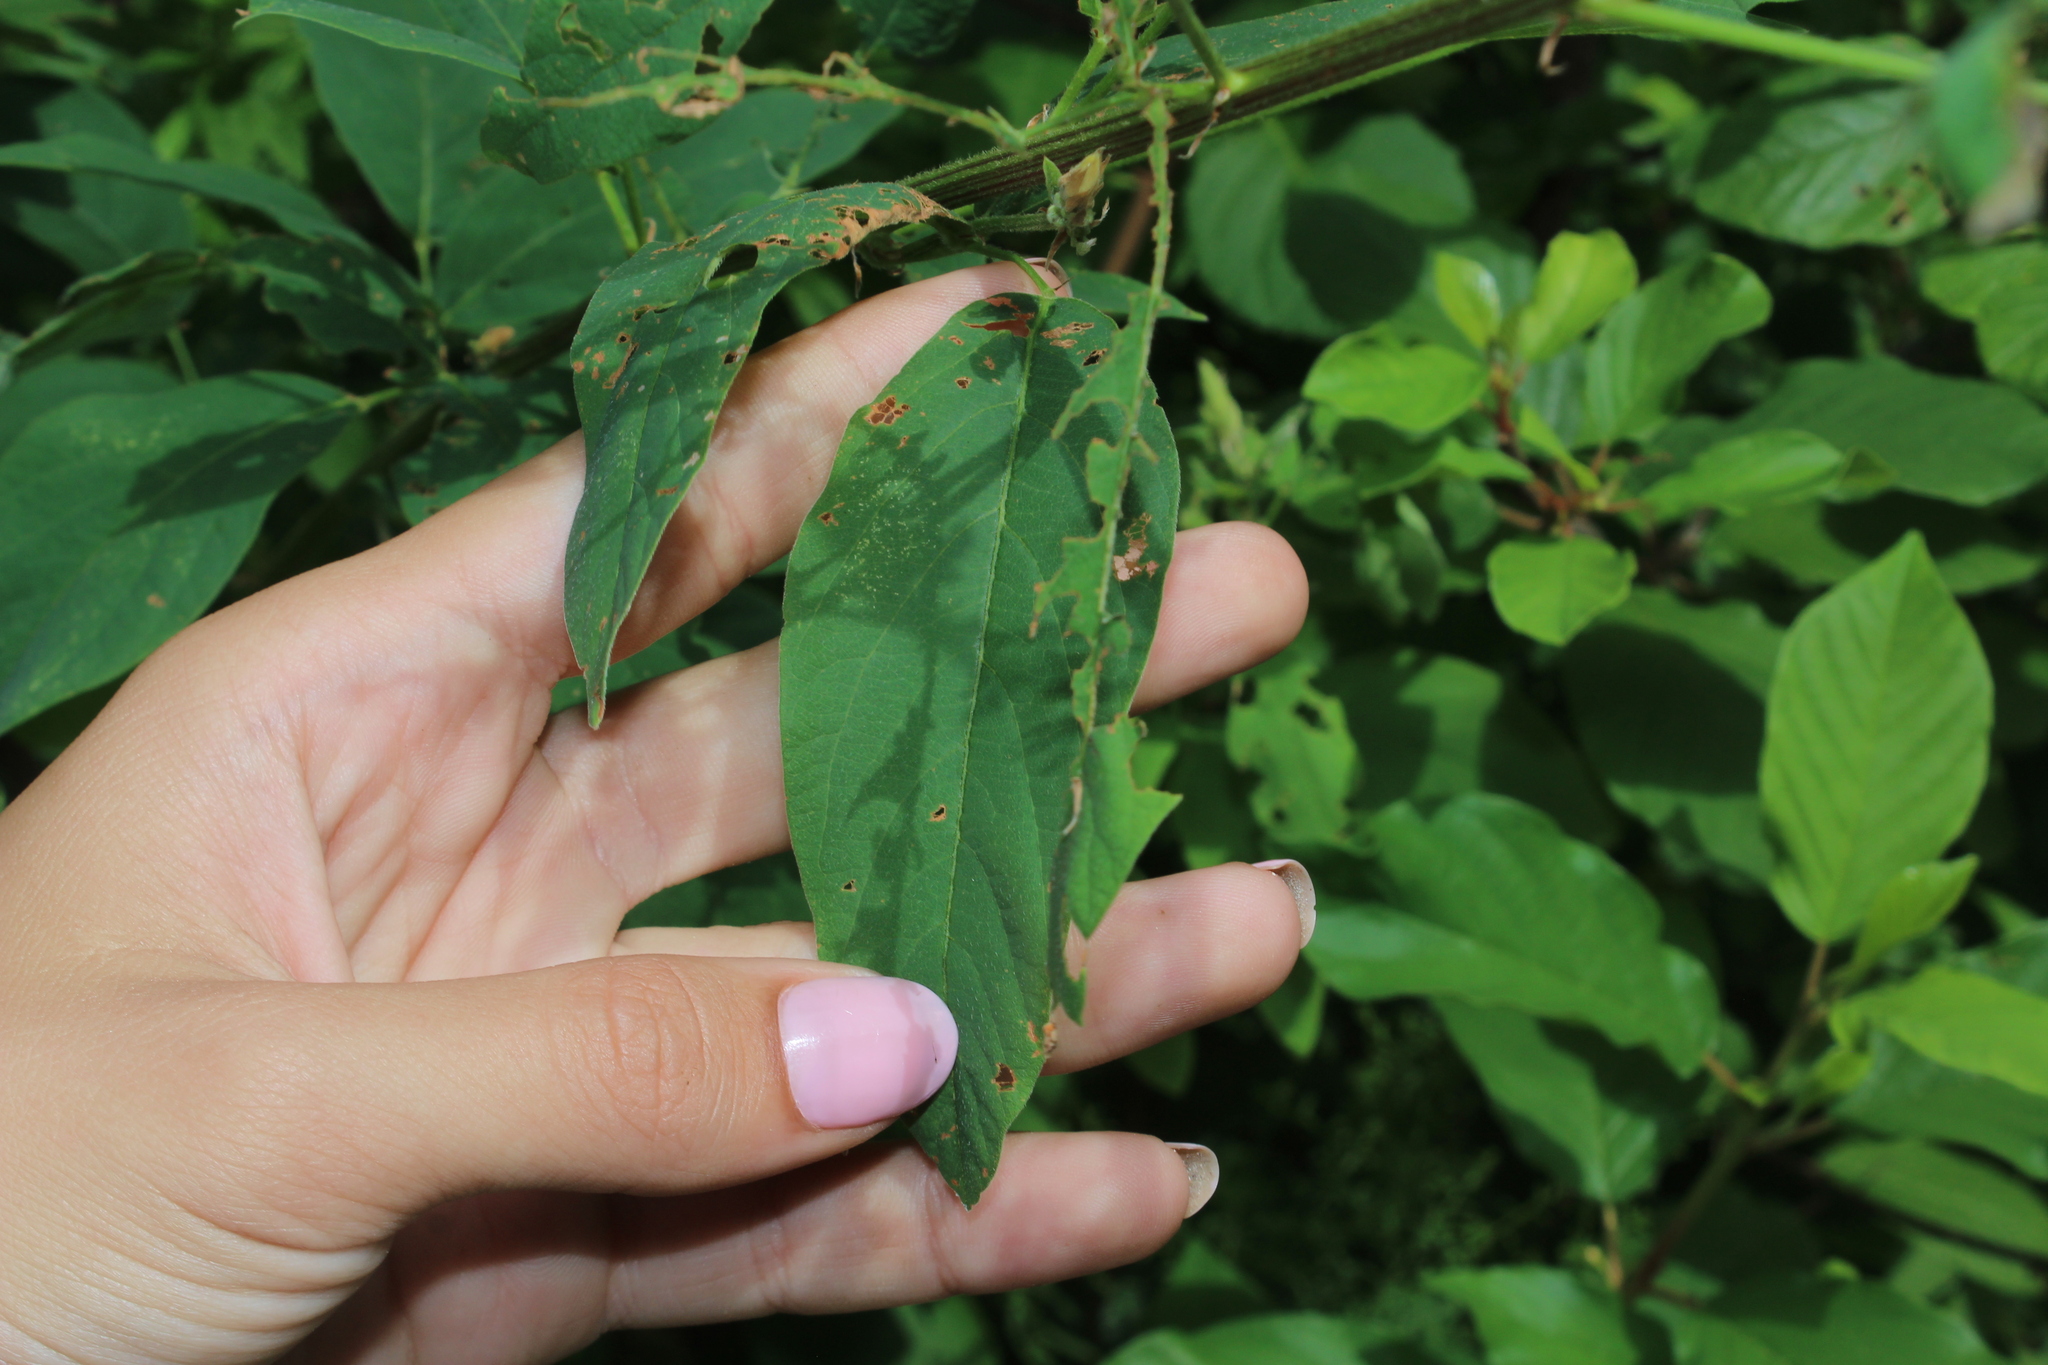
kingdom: Plantae
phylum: Tracheophyta
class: Magnoliopsida
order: Fabales
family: Fabaceae
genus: Desmodium
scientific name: Desmodium canadense
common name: Canada tick-trefoil
